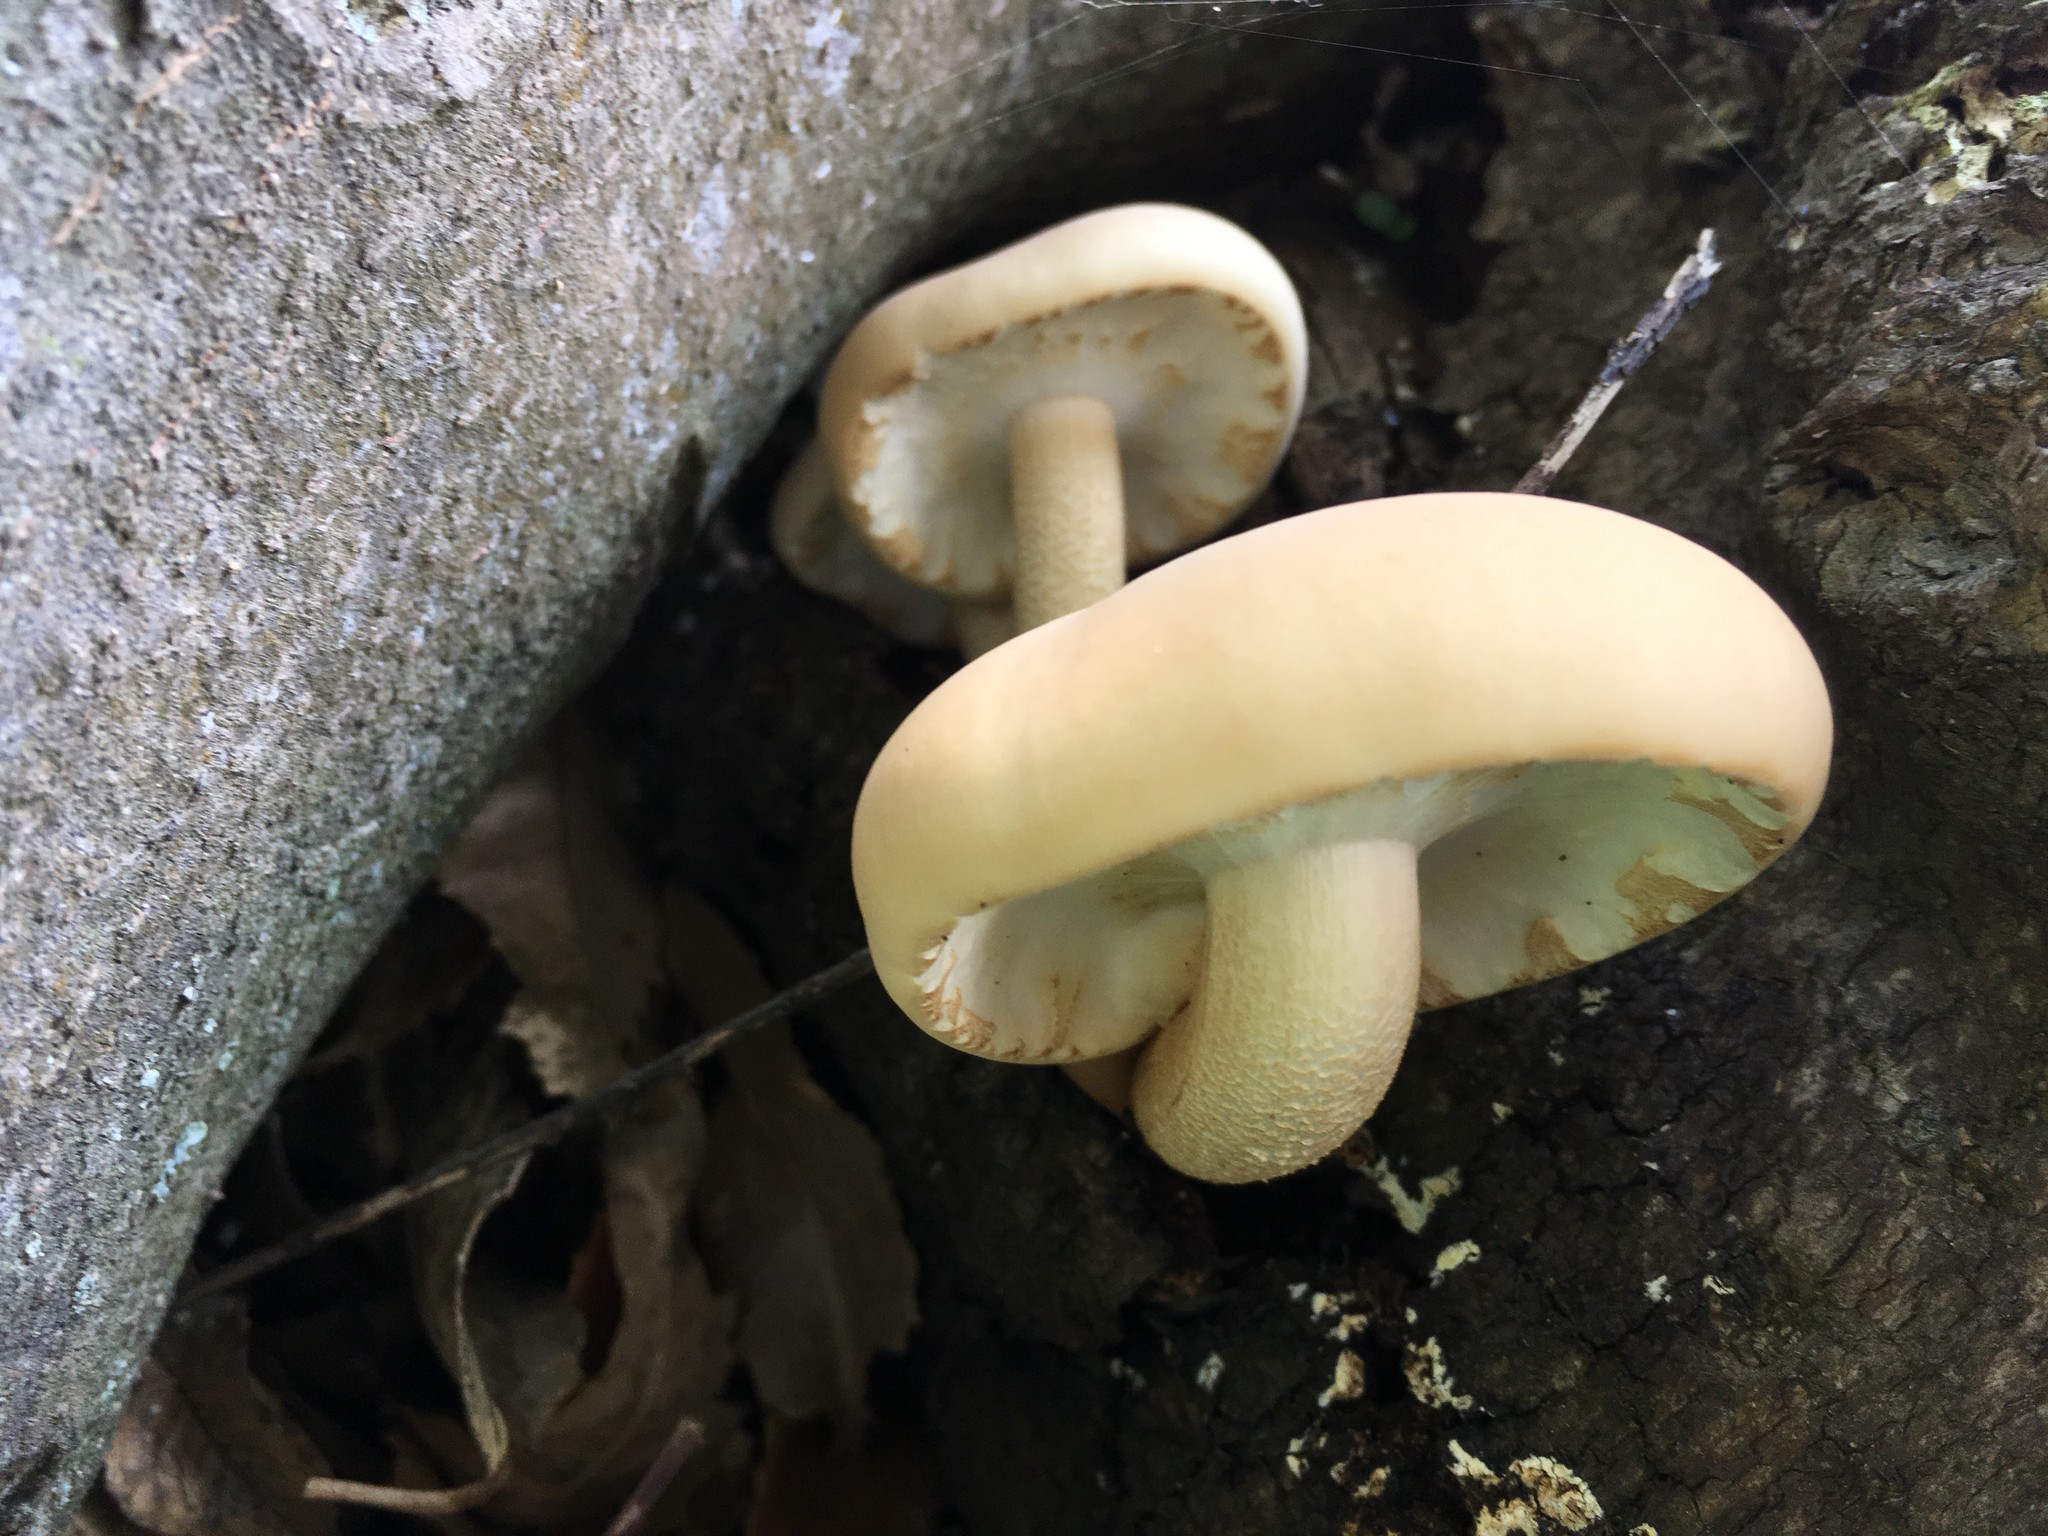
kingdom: Fungi
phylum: Basidiomycota
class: Agaricomycetes
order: Agaricales
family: Tubariaceae
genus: Cyclocybe
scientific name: Cyclocybe parasitica
